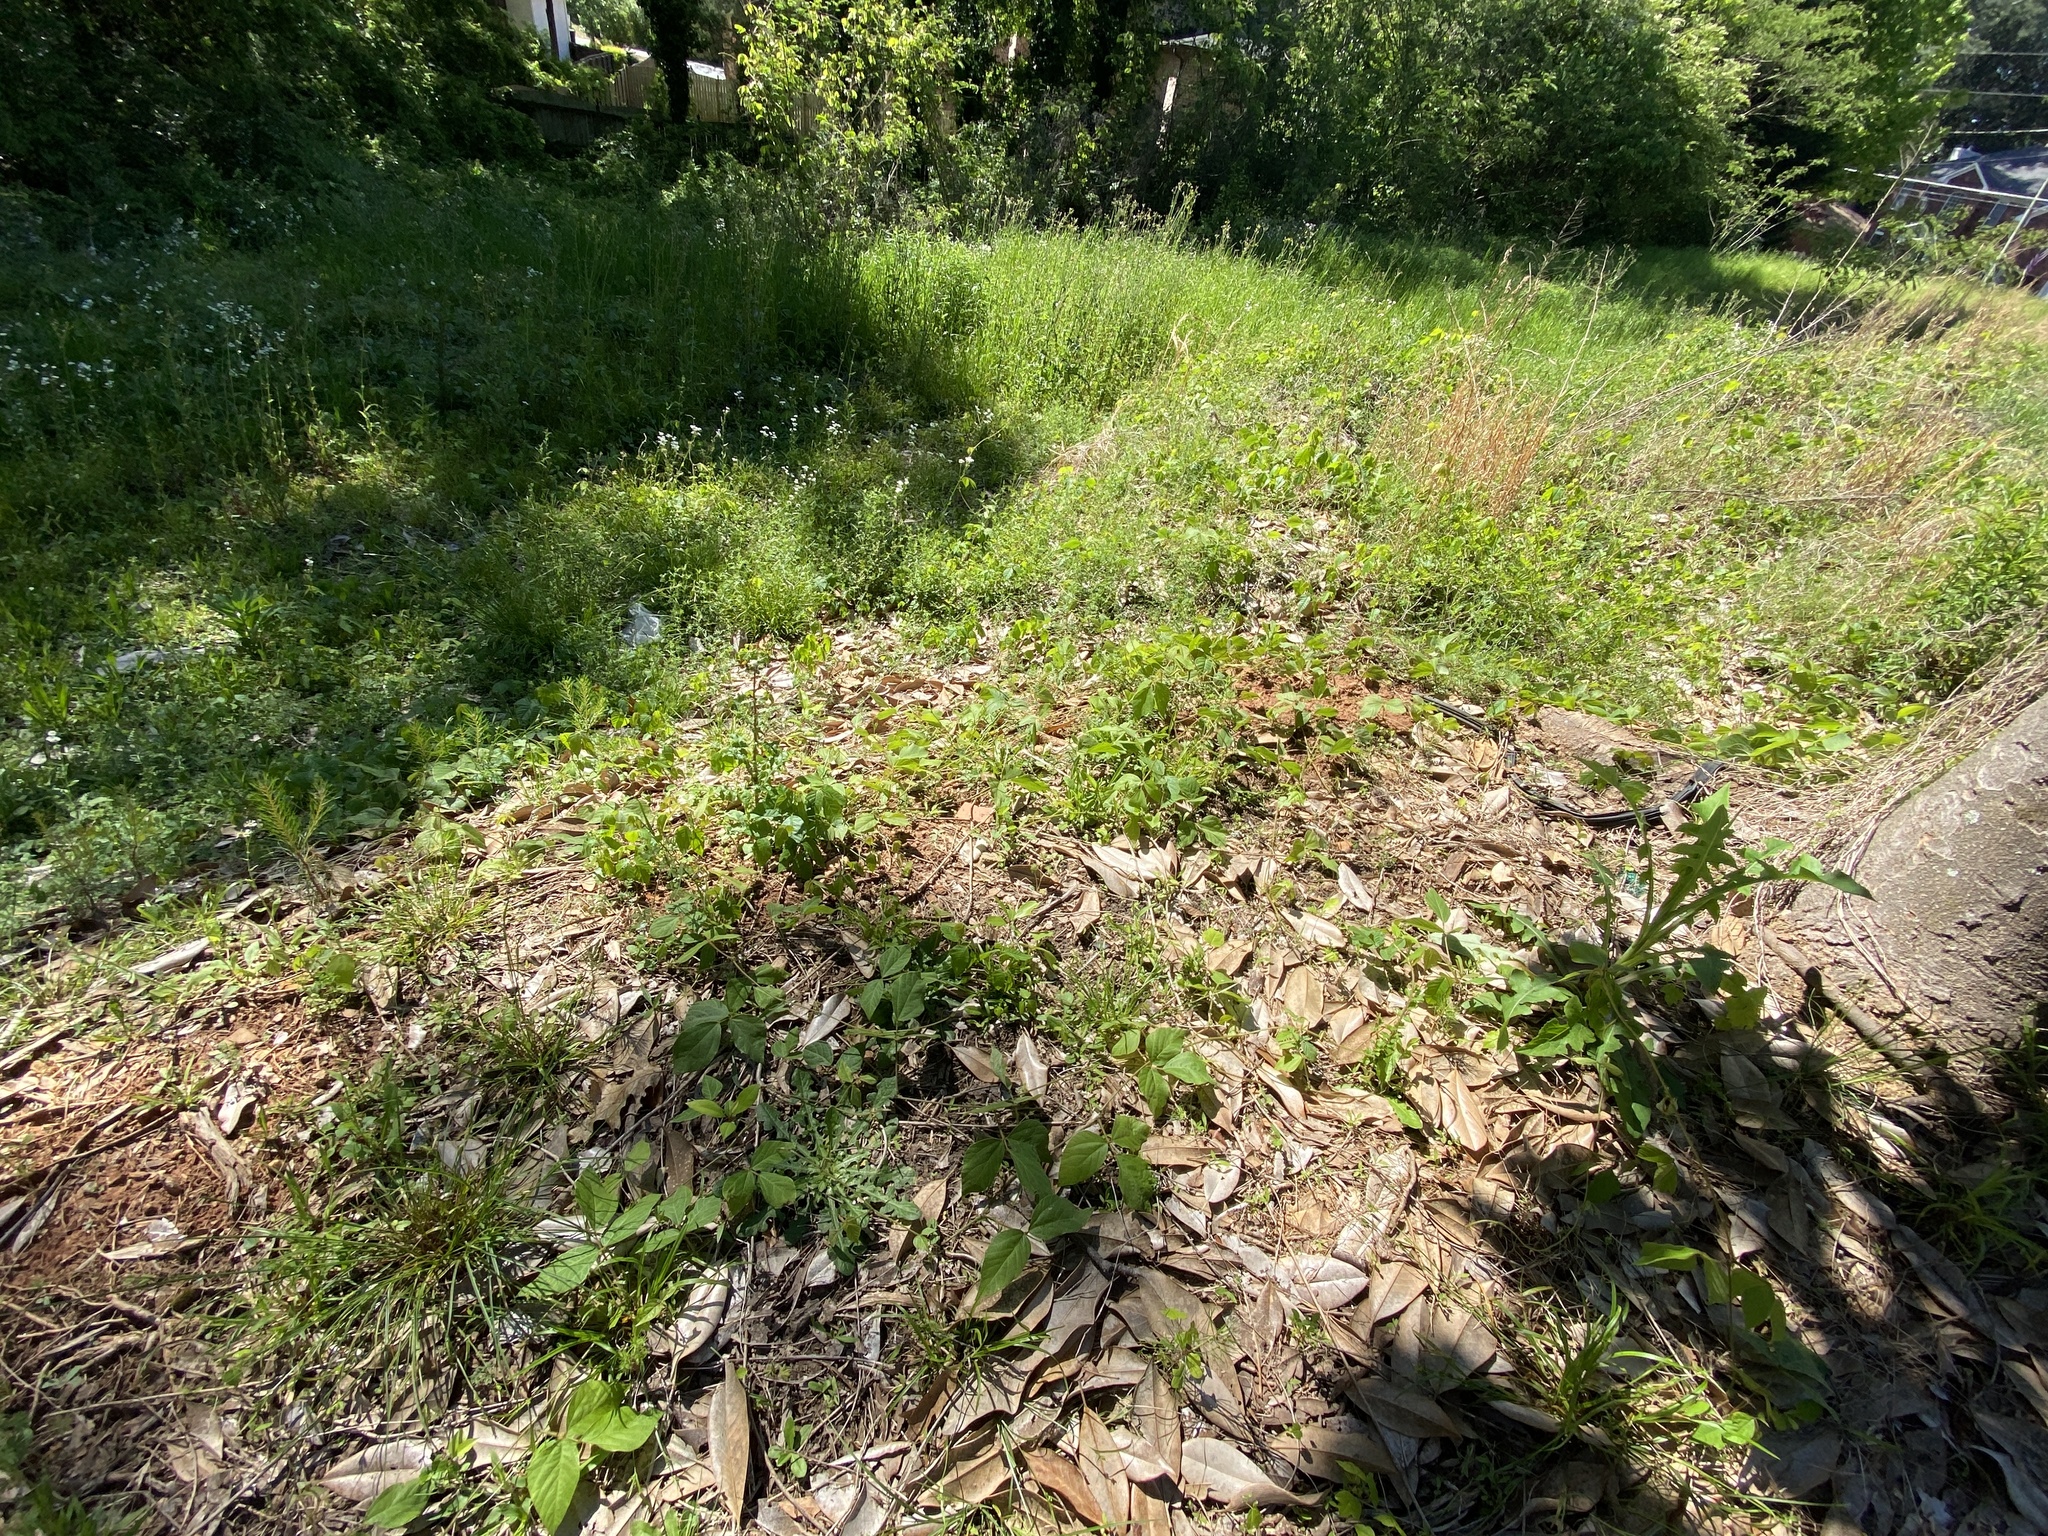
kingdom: Plantae
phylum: Tracheophyta
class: Magnoliopsida
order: Fabales
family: Fabaceae
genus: Pueraria
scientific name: Pueraria montana
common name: Kudzu
